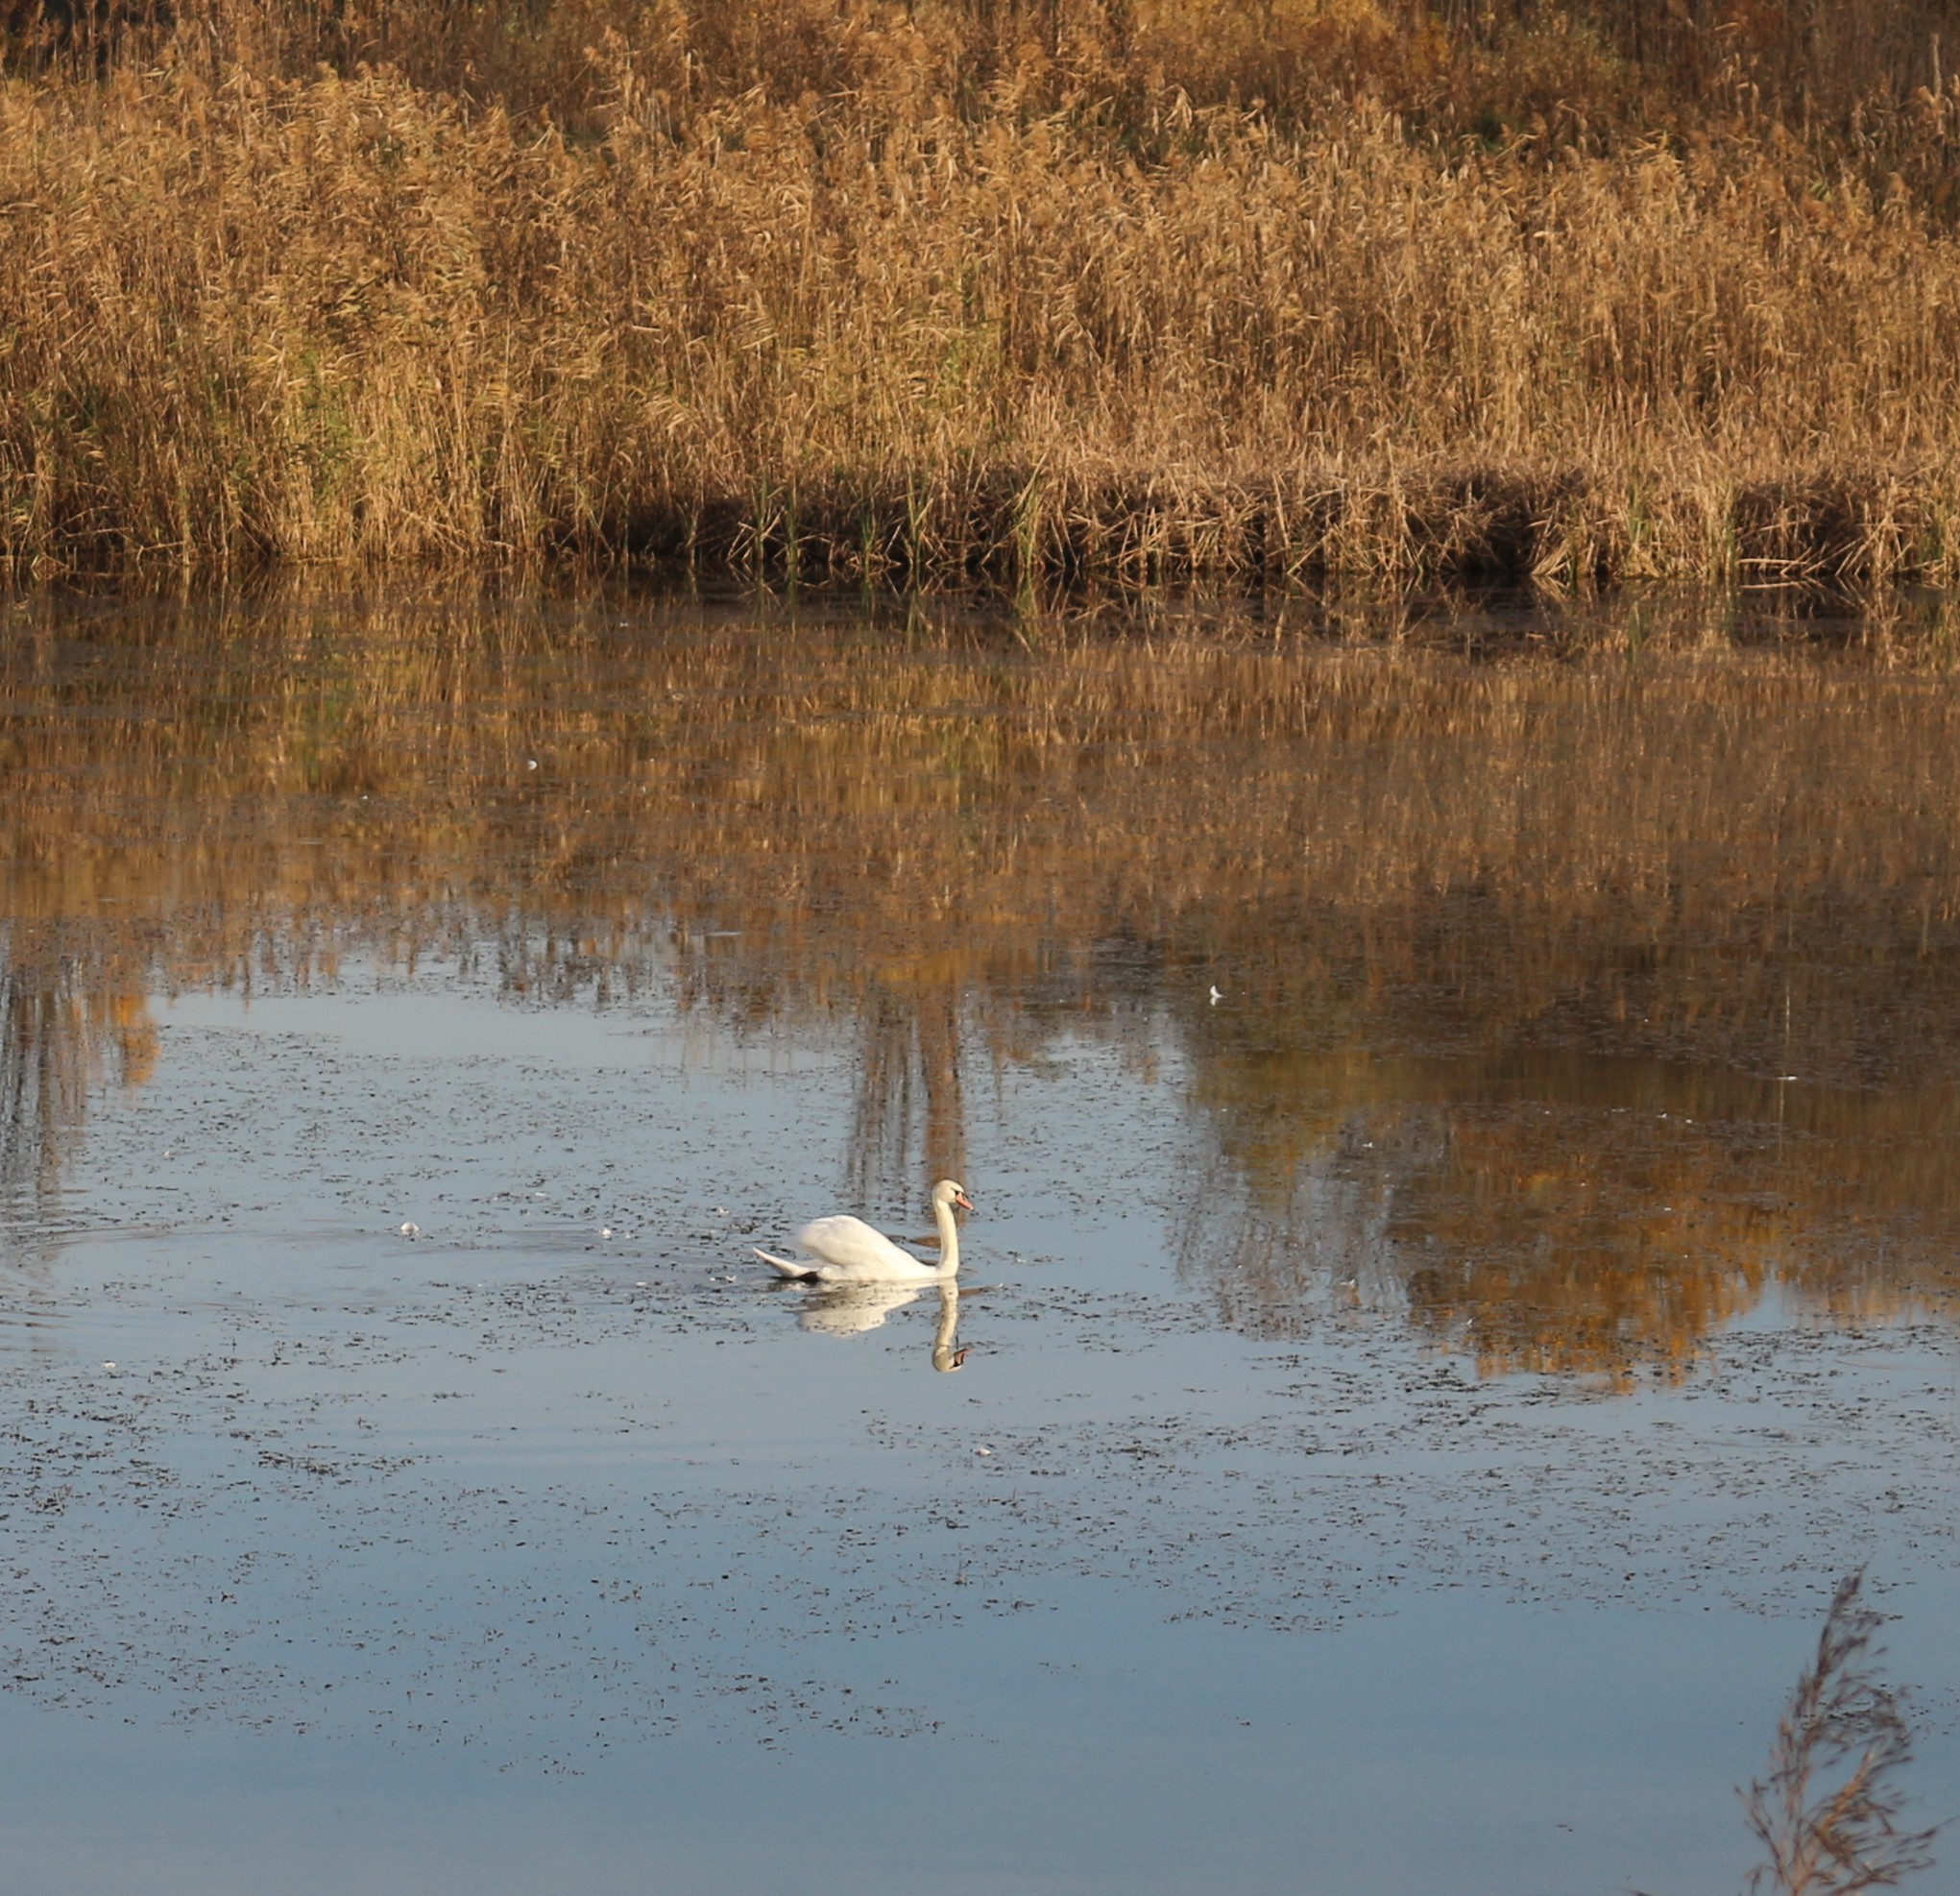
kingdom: Animalia
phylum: Chordata
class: Aves
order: Anseriformes
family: Anatidae
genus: Cygnus
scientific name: Cygnus olor
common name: Mute swan
